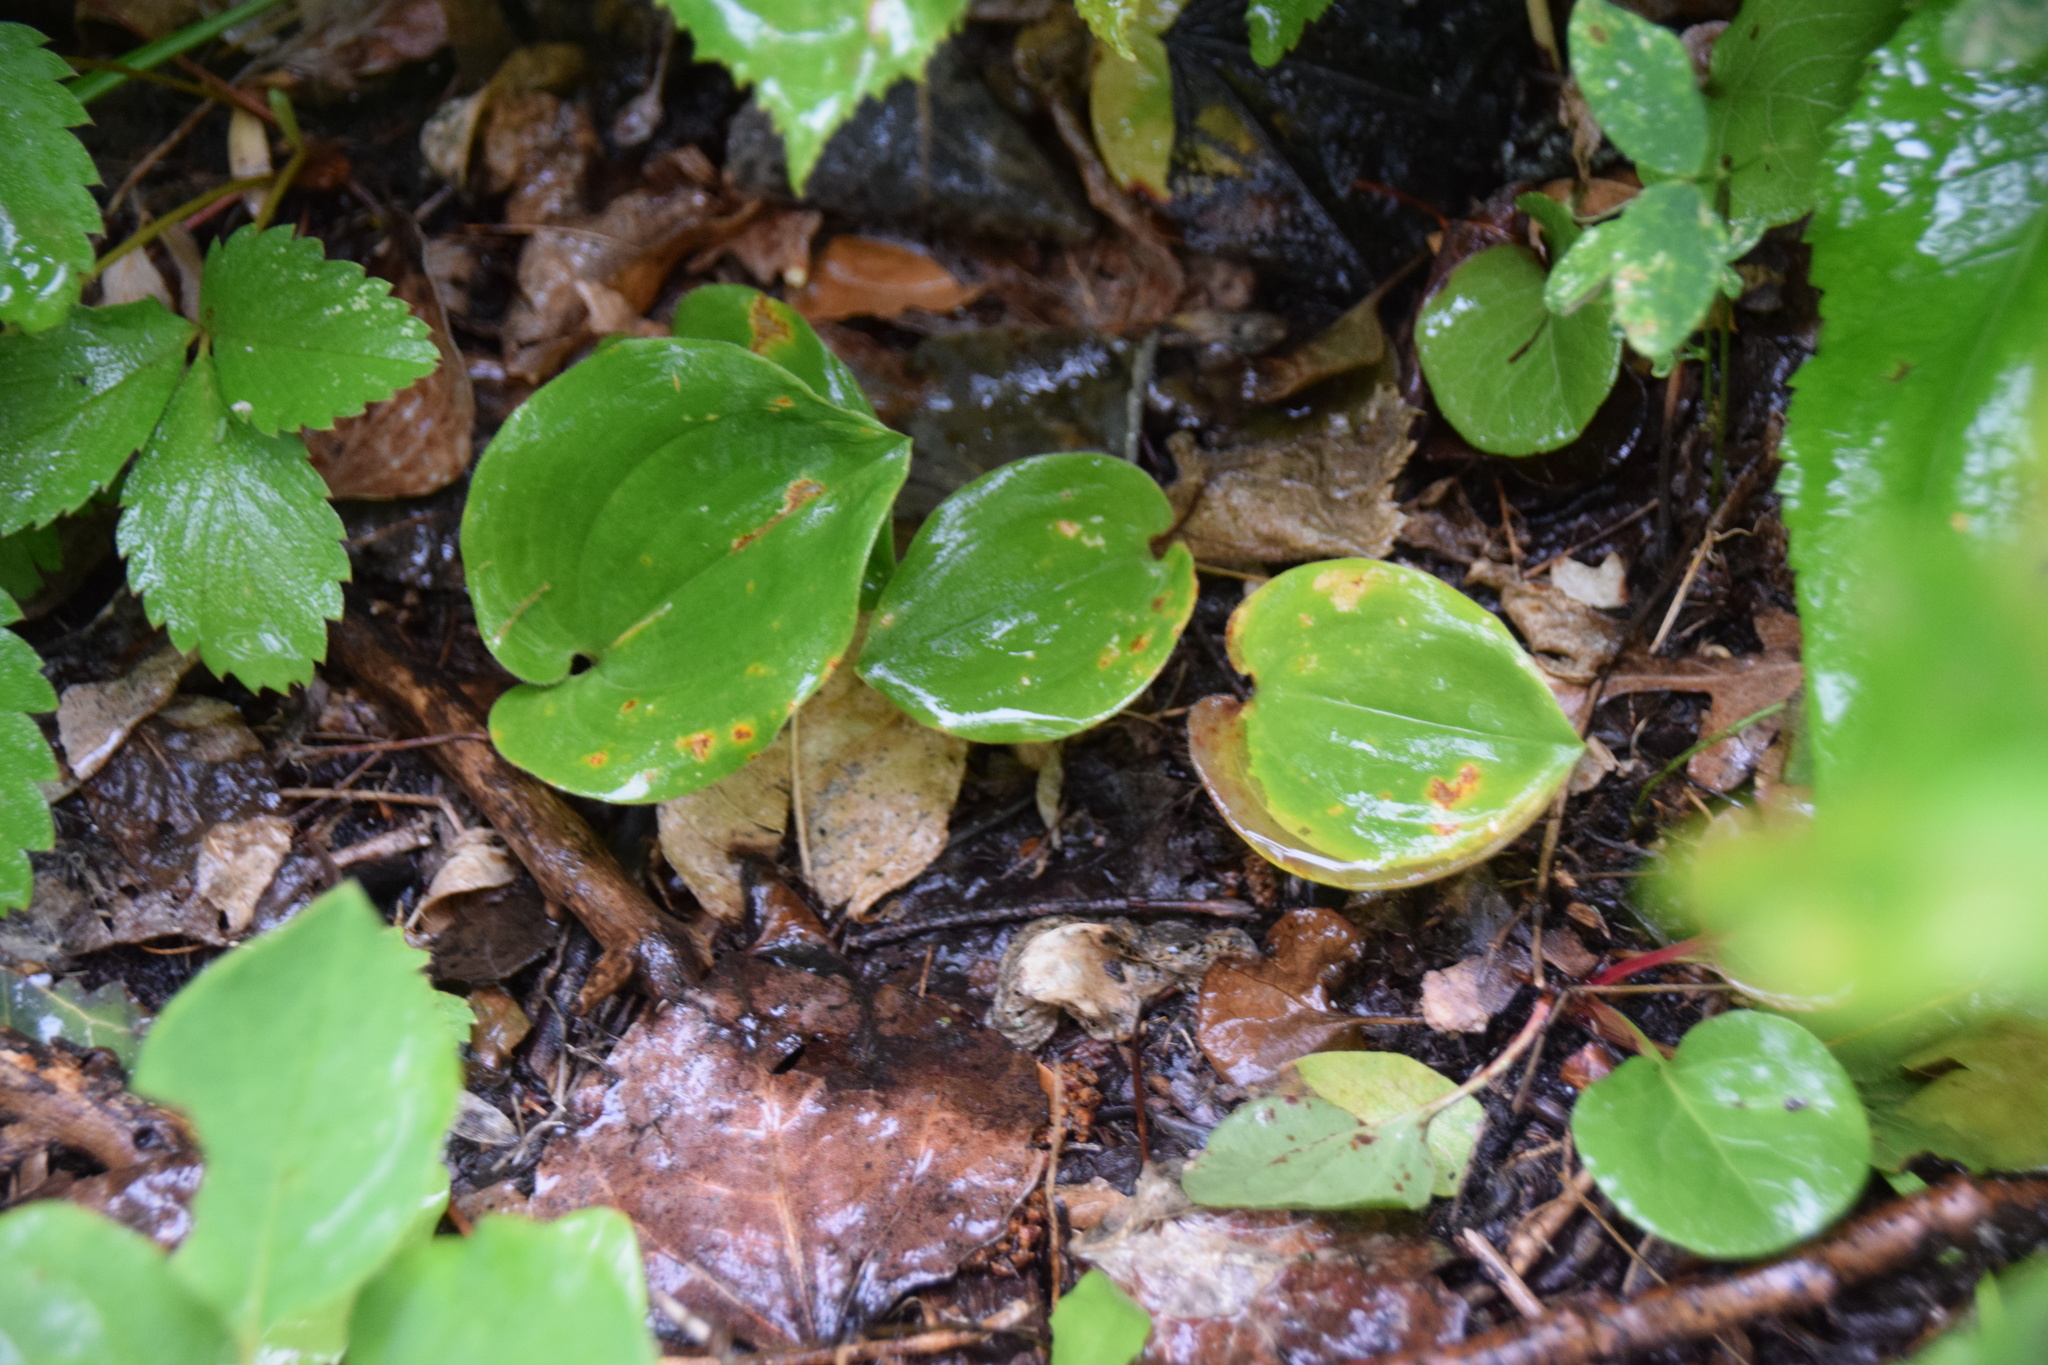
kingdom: Plantae
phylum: Tracheophyta
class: Liliopsida
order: Asparagales
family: Asparagaceae
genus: Maianthemum
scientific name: Maianthemum canadense
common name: False lily-of-the-valley
